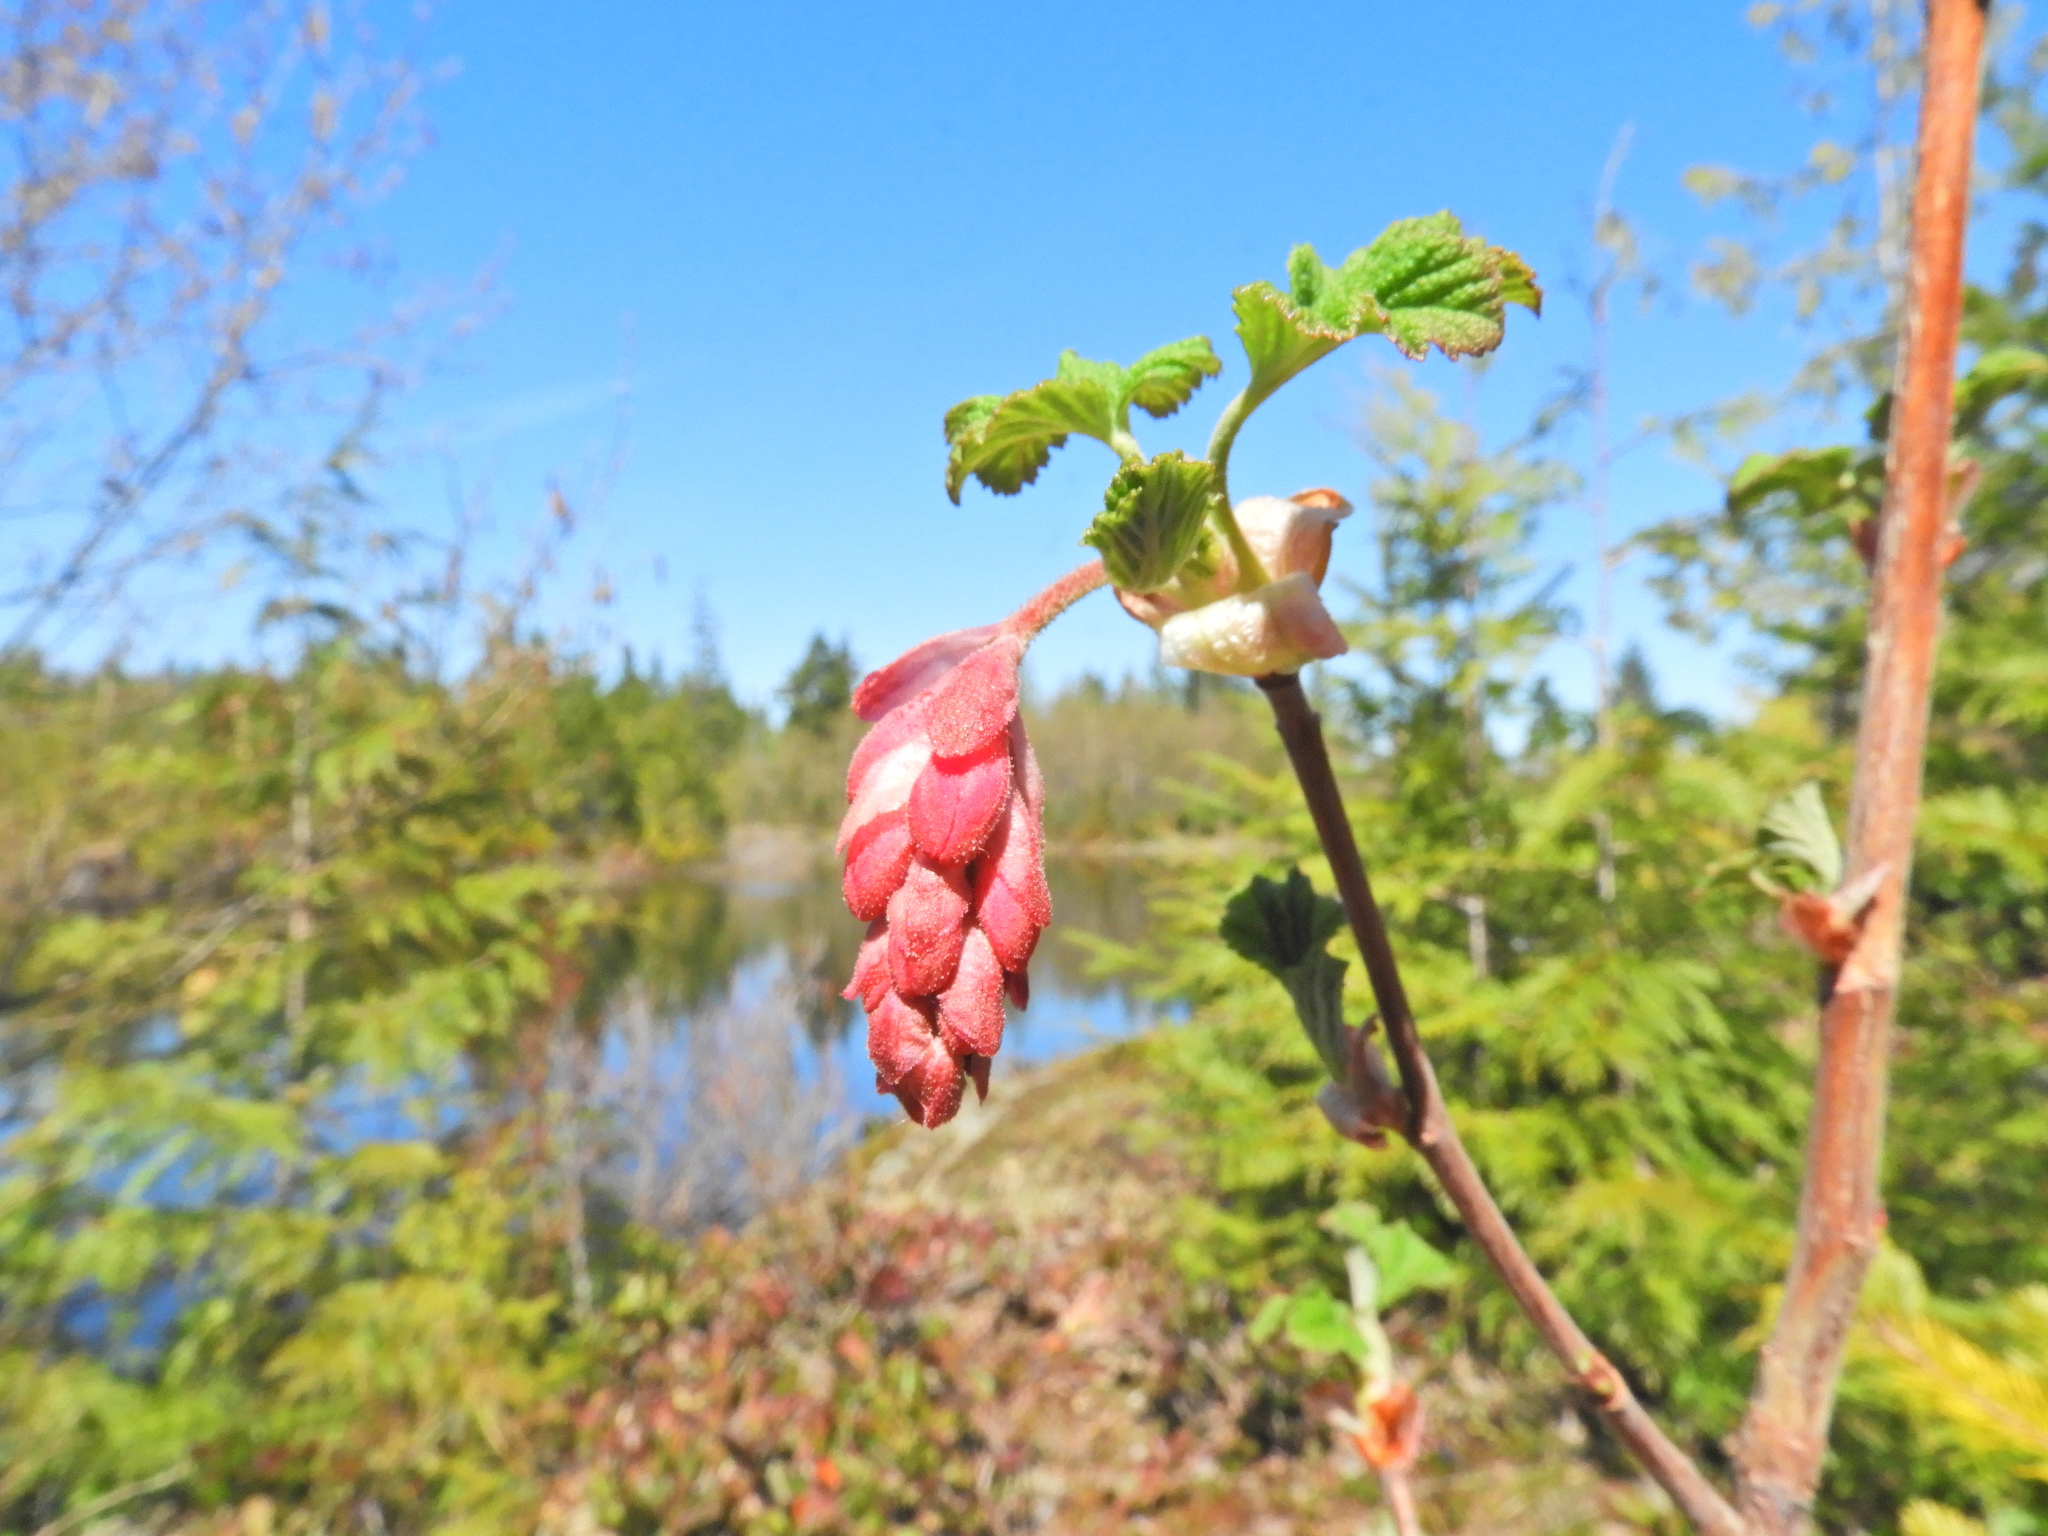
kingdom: Plantae
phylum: Tracheophyta
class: Magnoliopsida
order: Saxifragales
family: Grossulariaceae
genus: Ribes
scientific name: Ribes sanguineum
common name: Flowering currant
